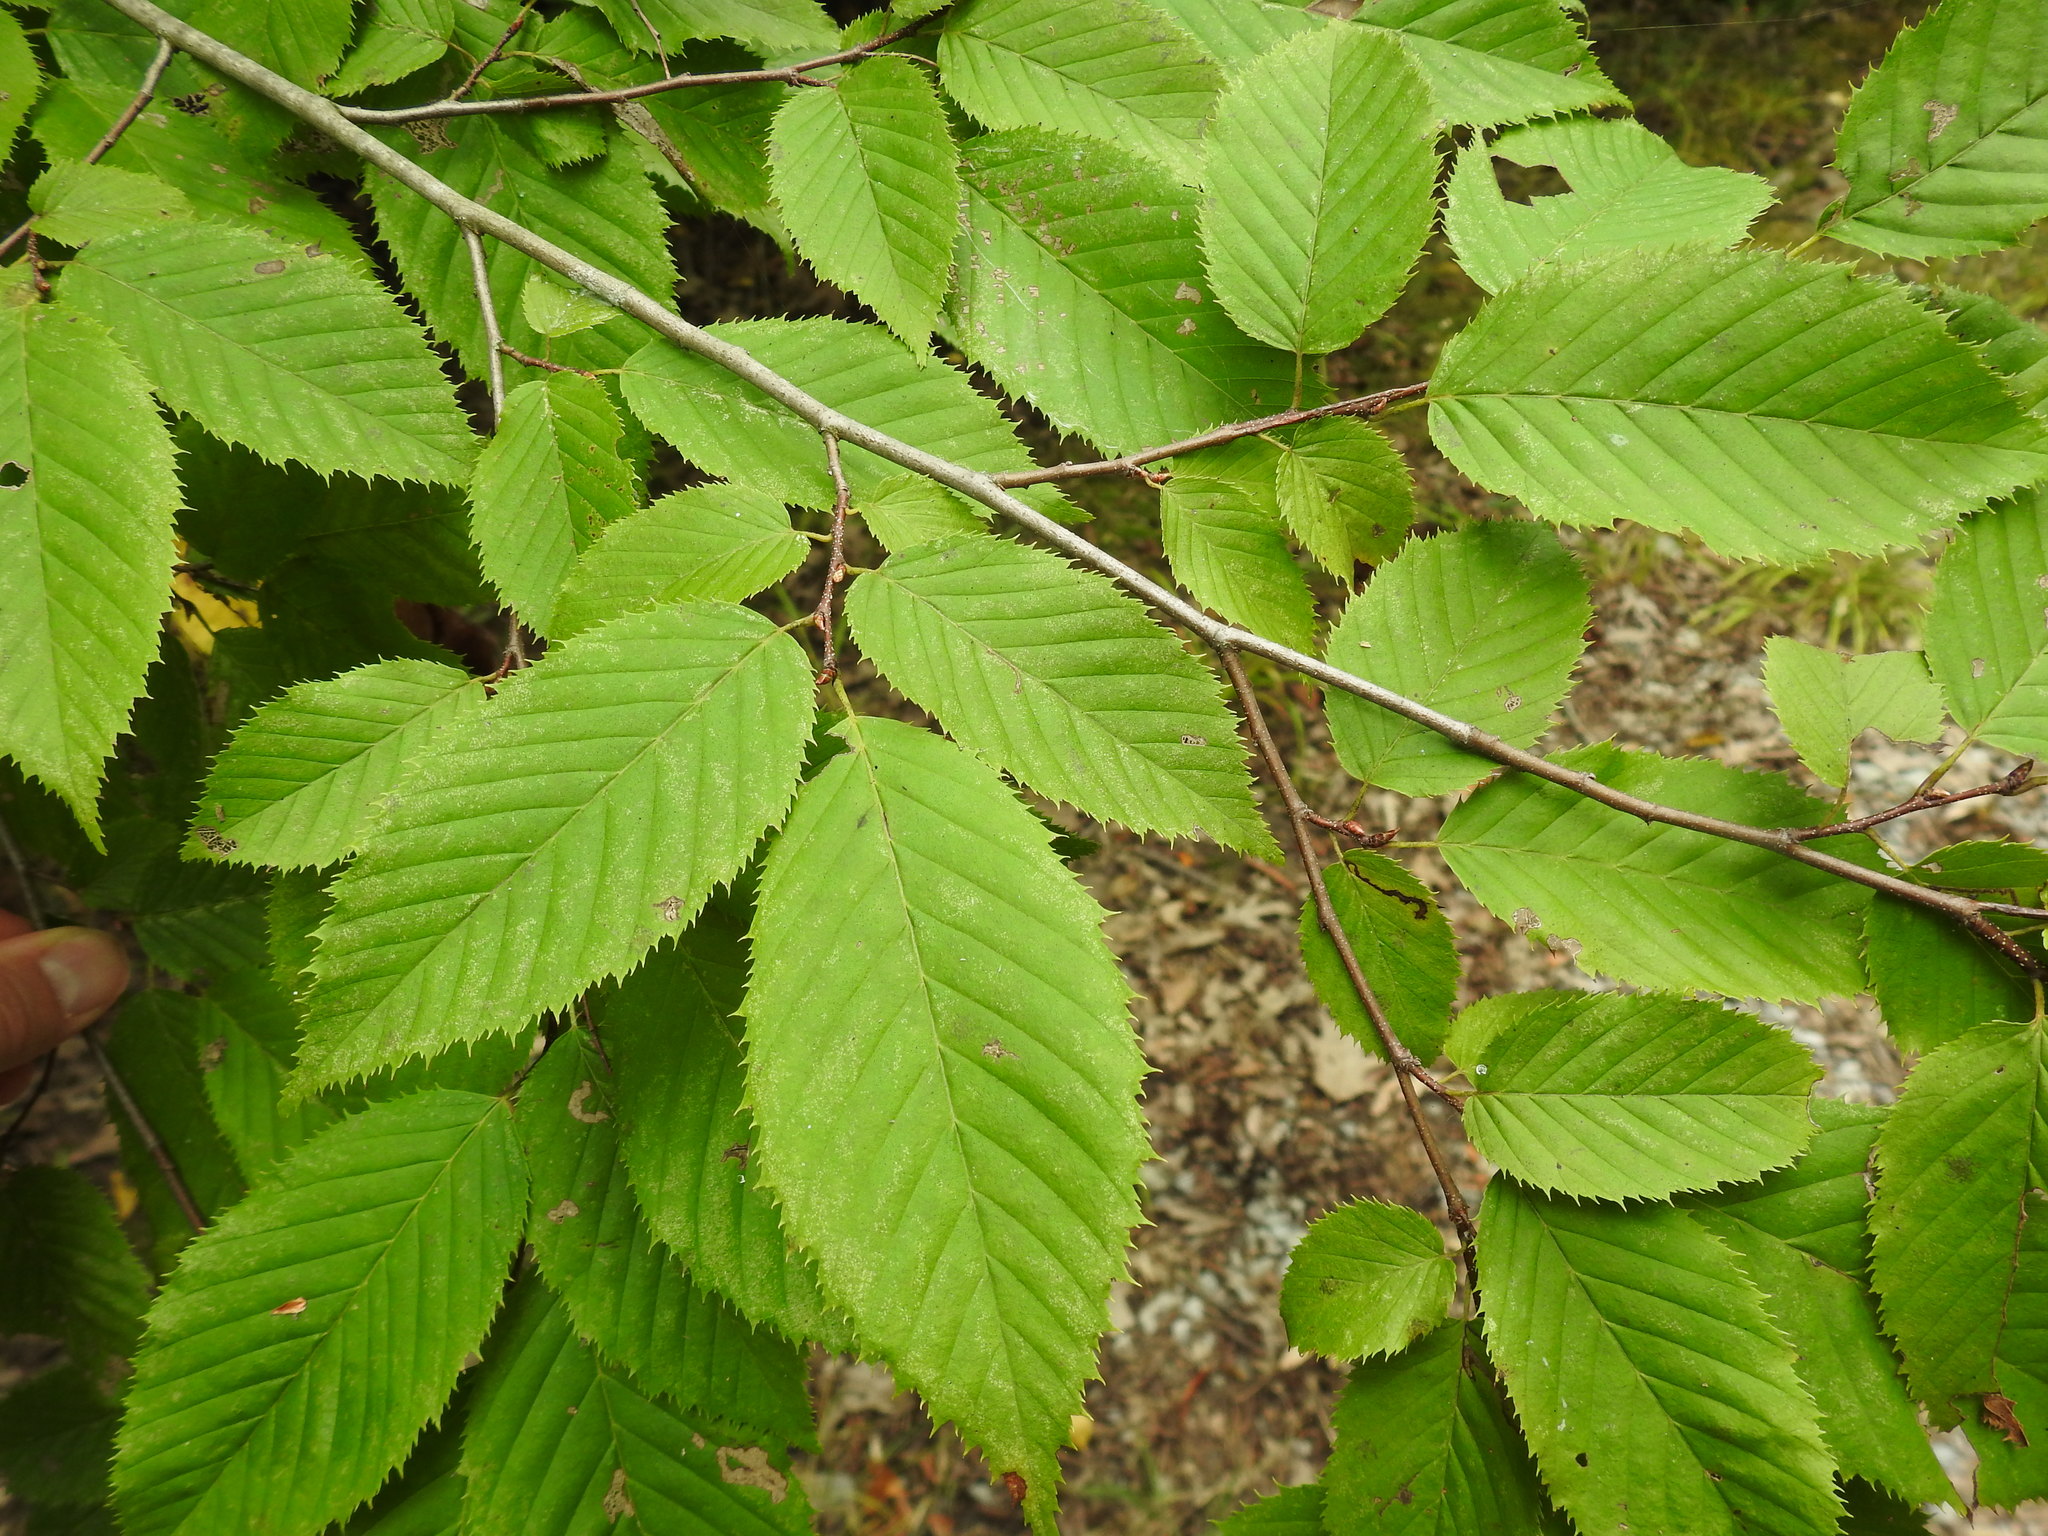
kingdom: Plantae
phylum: Tracheophyta
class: Magnoliopsida
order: Fagales
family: Betulaceae
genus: Carpinus
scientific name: Carpinus caroliniana
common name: American hornbeam
